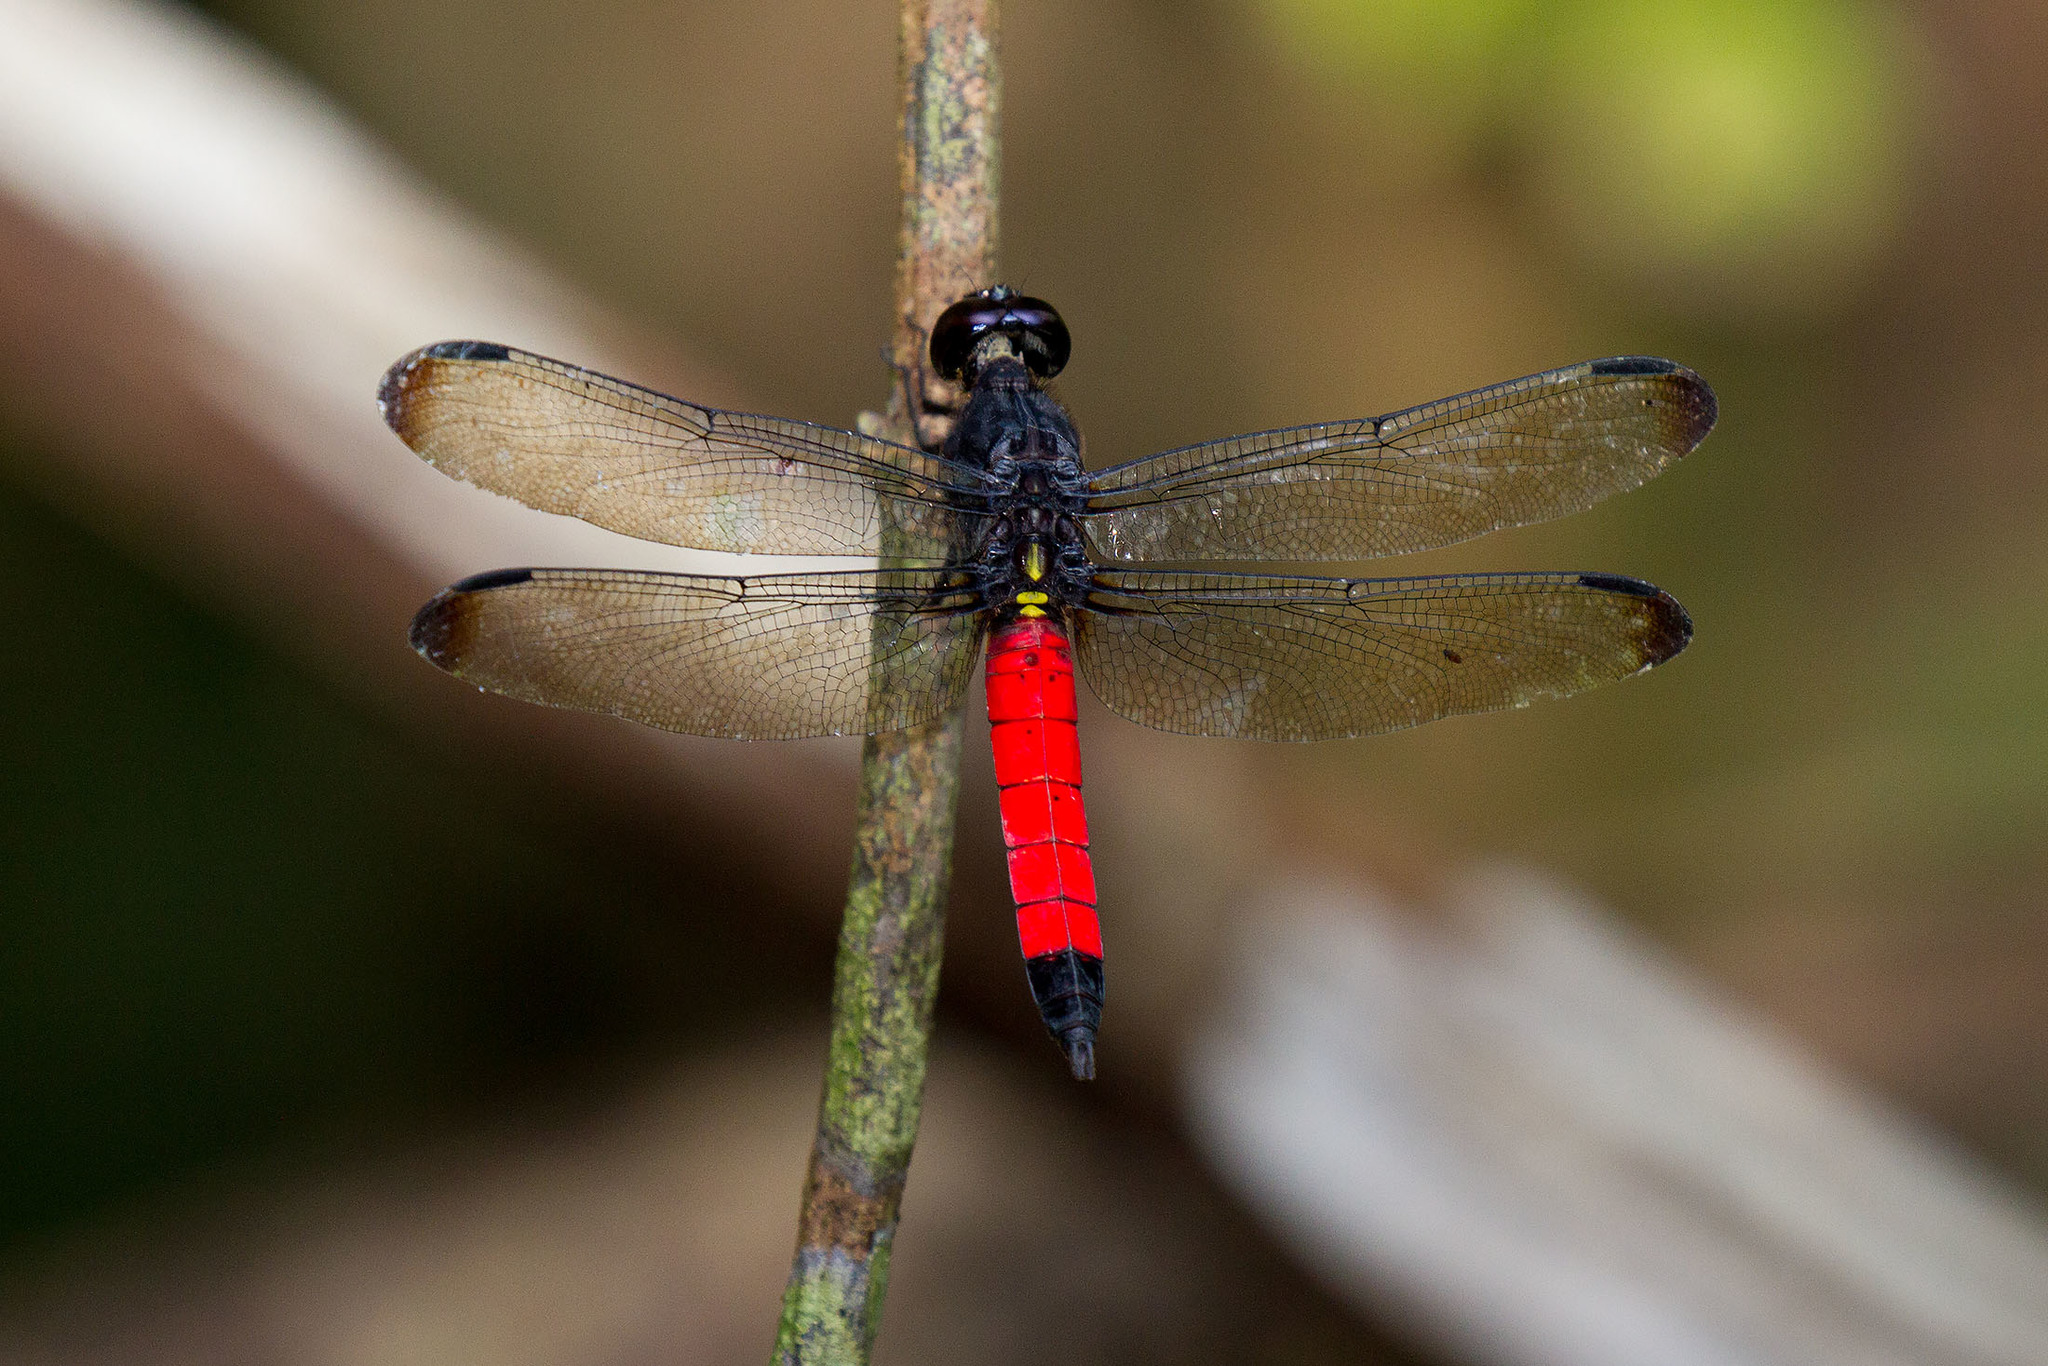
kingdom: Animalia
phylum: Arthropoda
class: Insecta
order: Odonata
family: Libellulidae
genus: Protorthemis
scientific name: Protorthemis coronata
